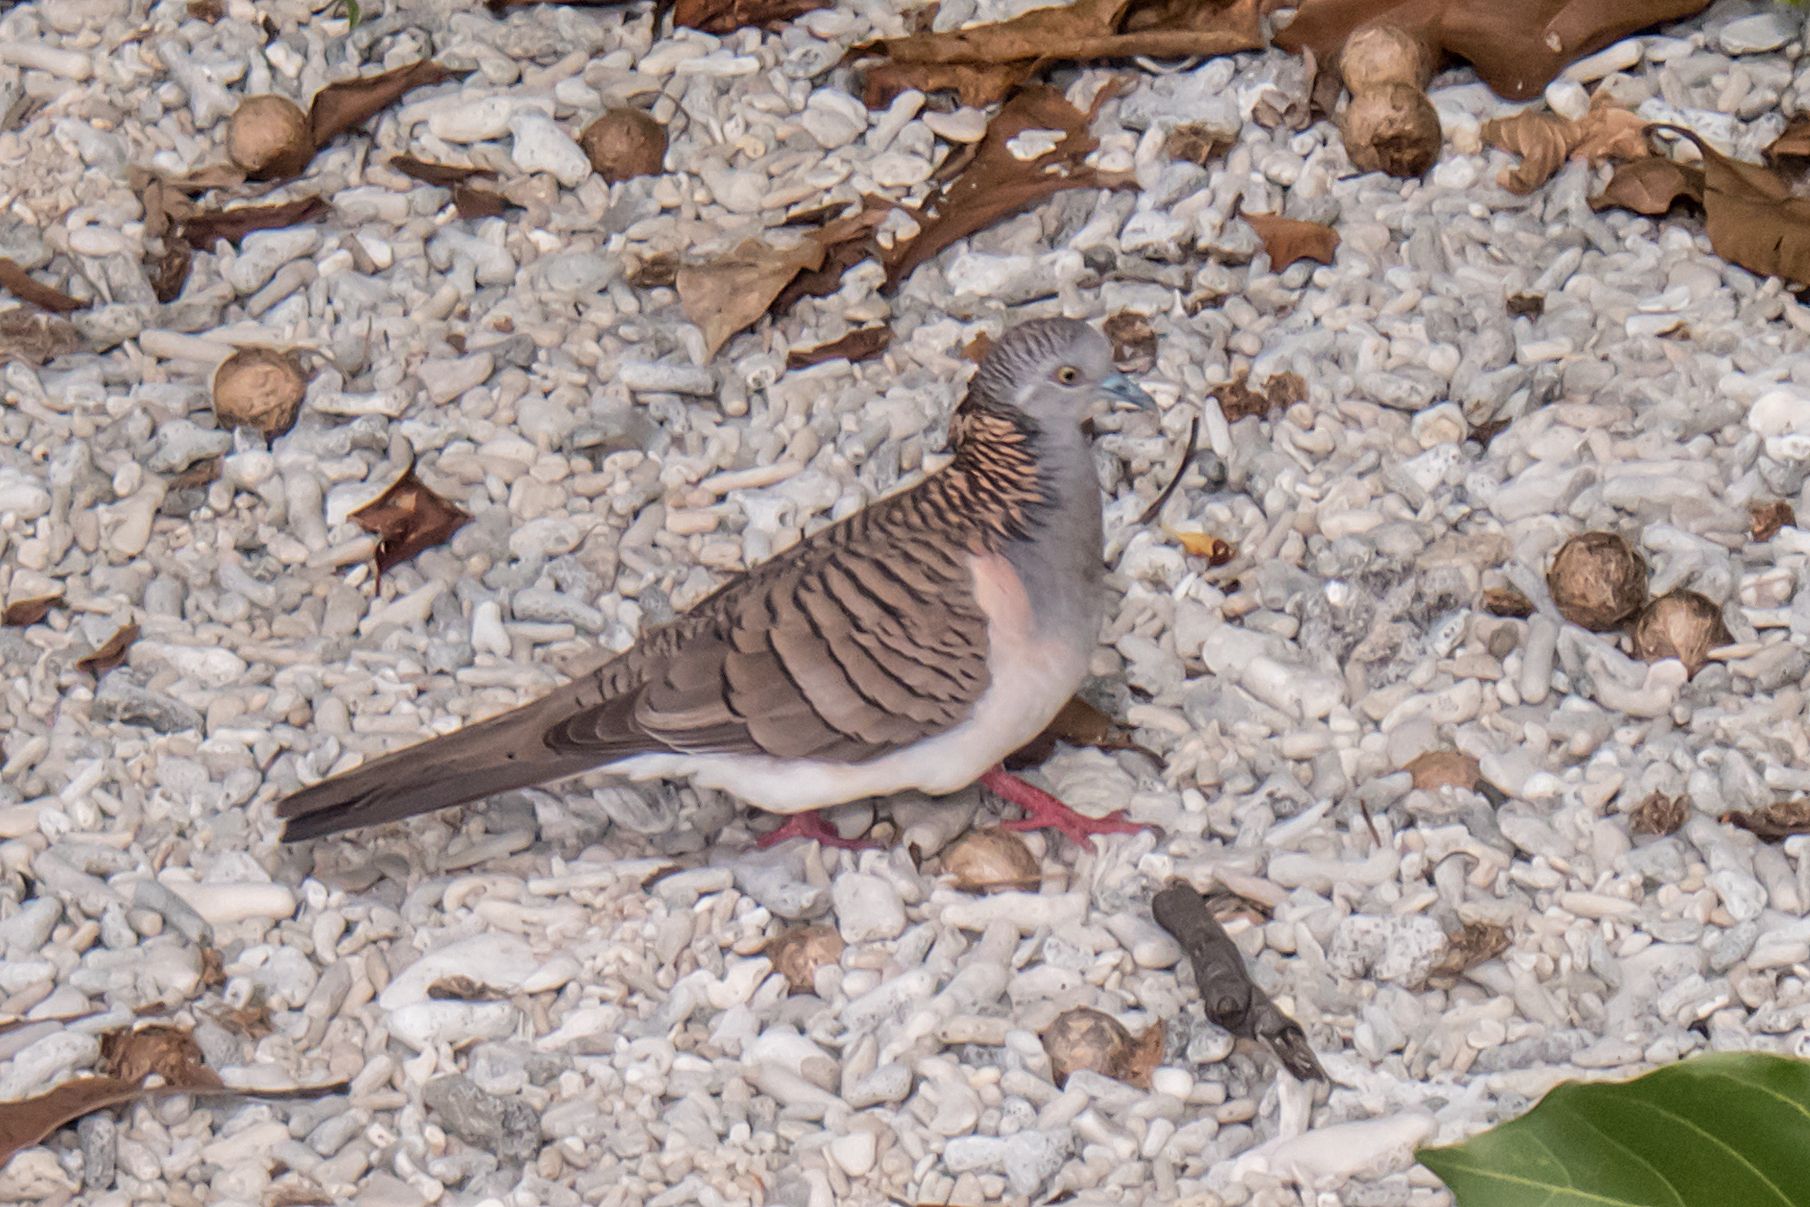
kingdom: Animalia
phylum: Chordata
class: Aves
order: Columbiformes
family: Columbidae
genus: Geopelia
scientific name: Geopelia humeralis
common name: Bar-shouldered dove
